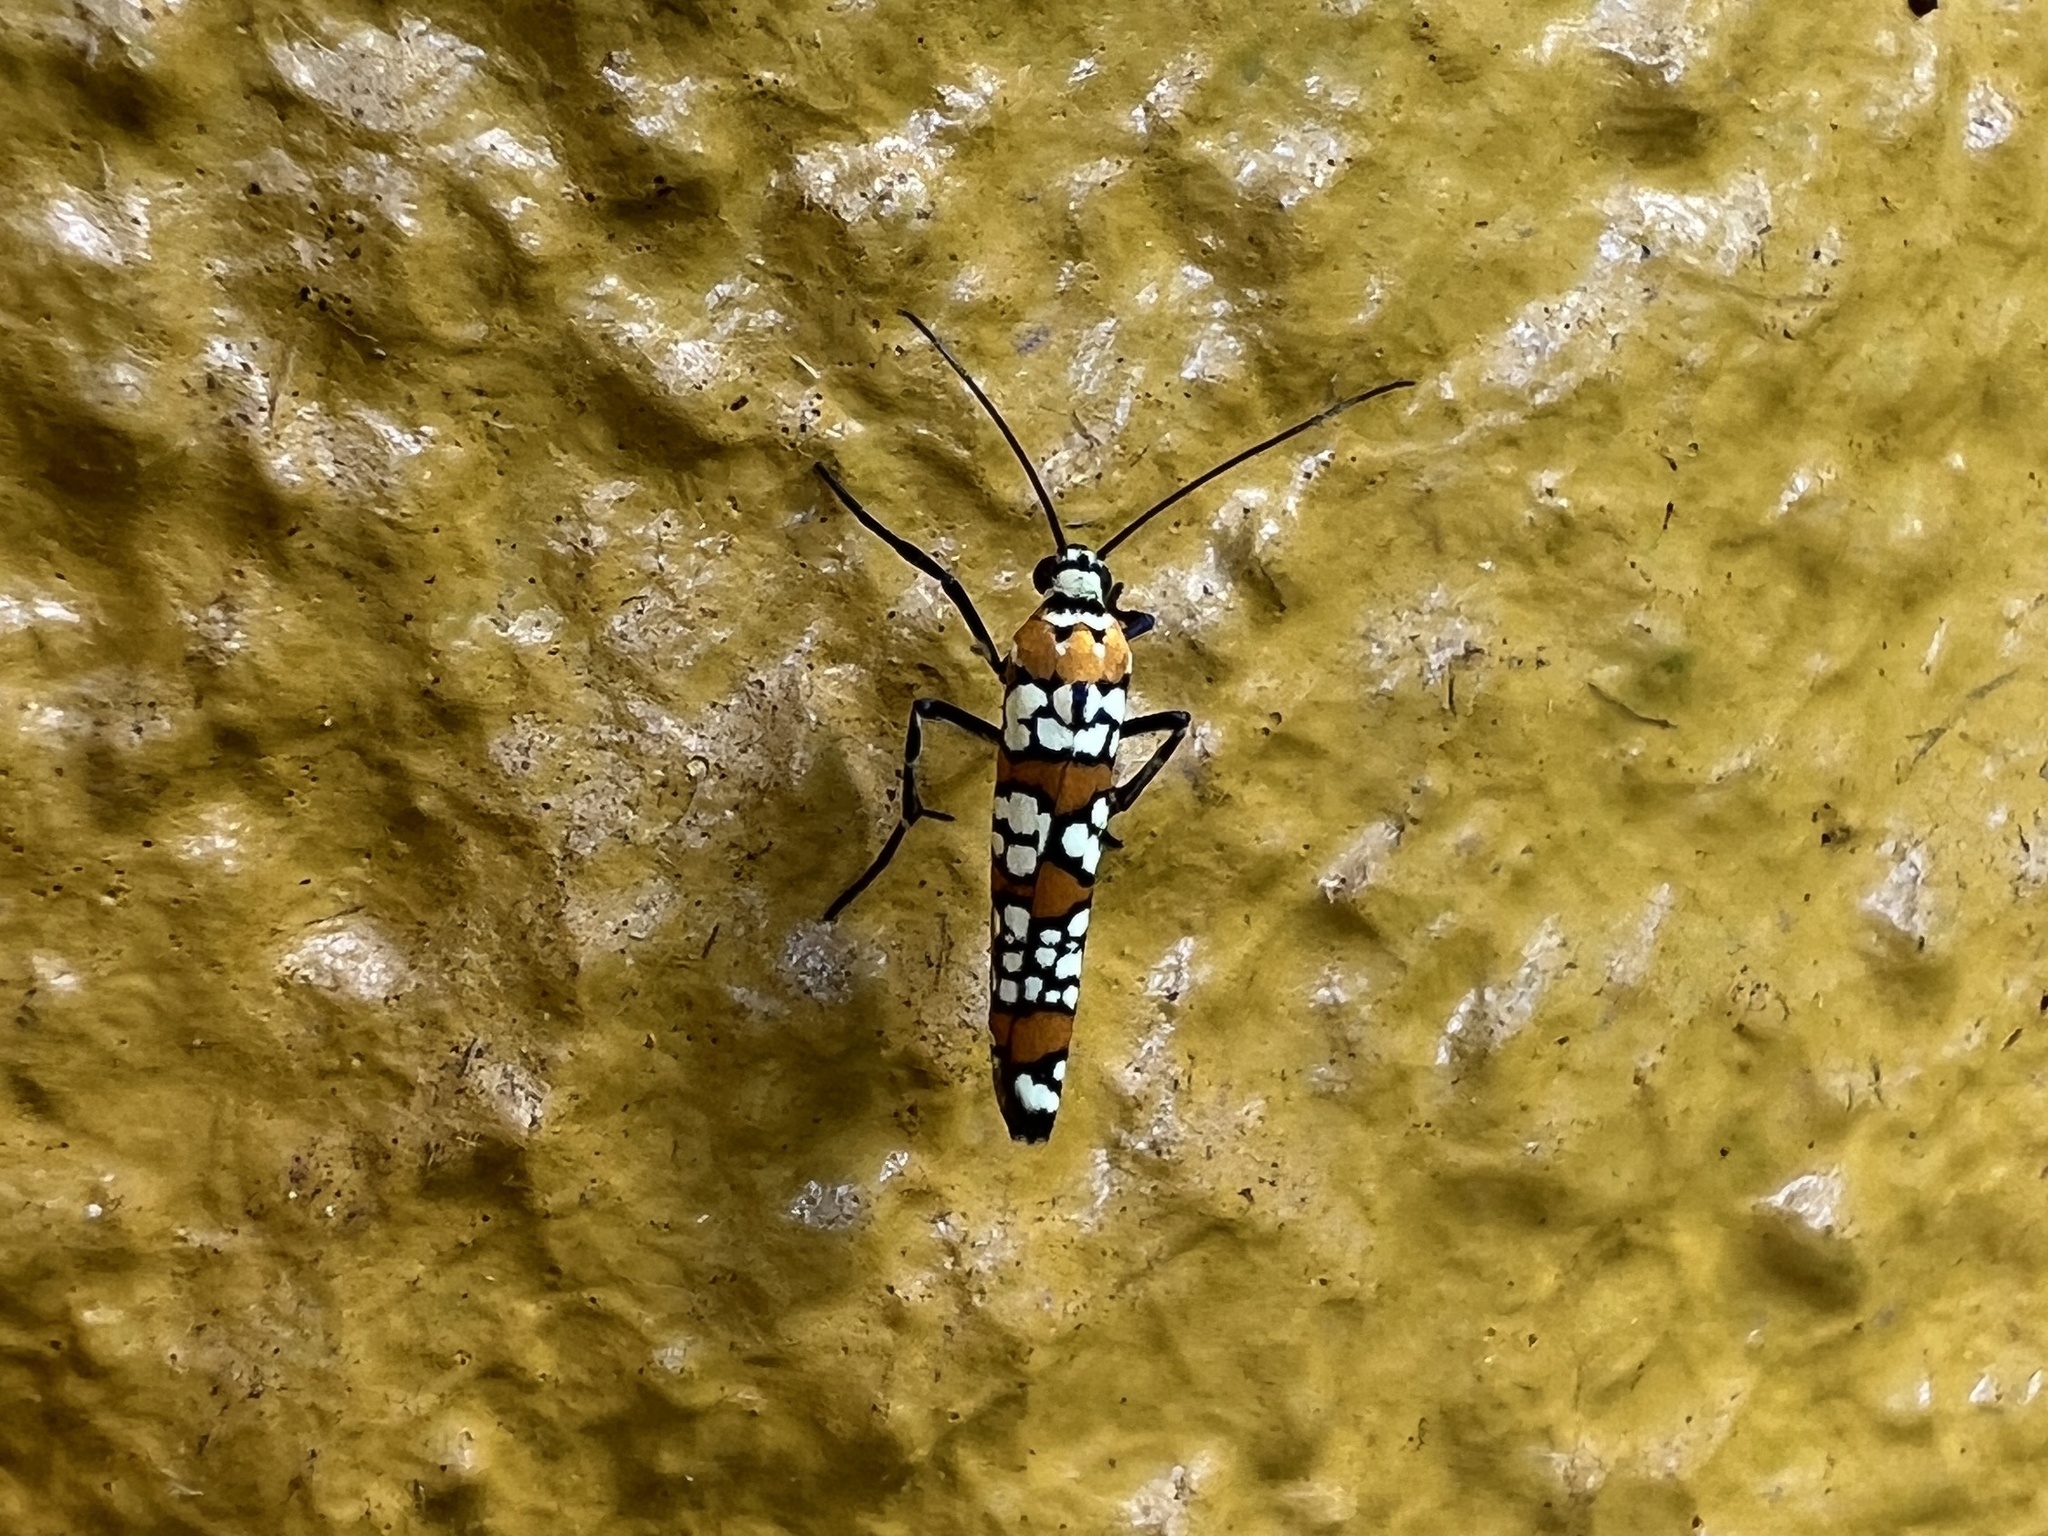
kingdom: Animalia
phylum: Arthropoda
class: Insecta
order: Lepidoptera
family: Attevidae
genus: Atteva
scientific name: Atteva punctella
